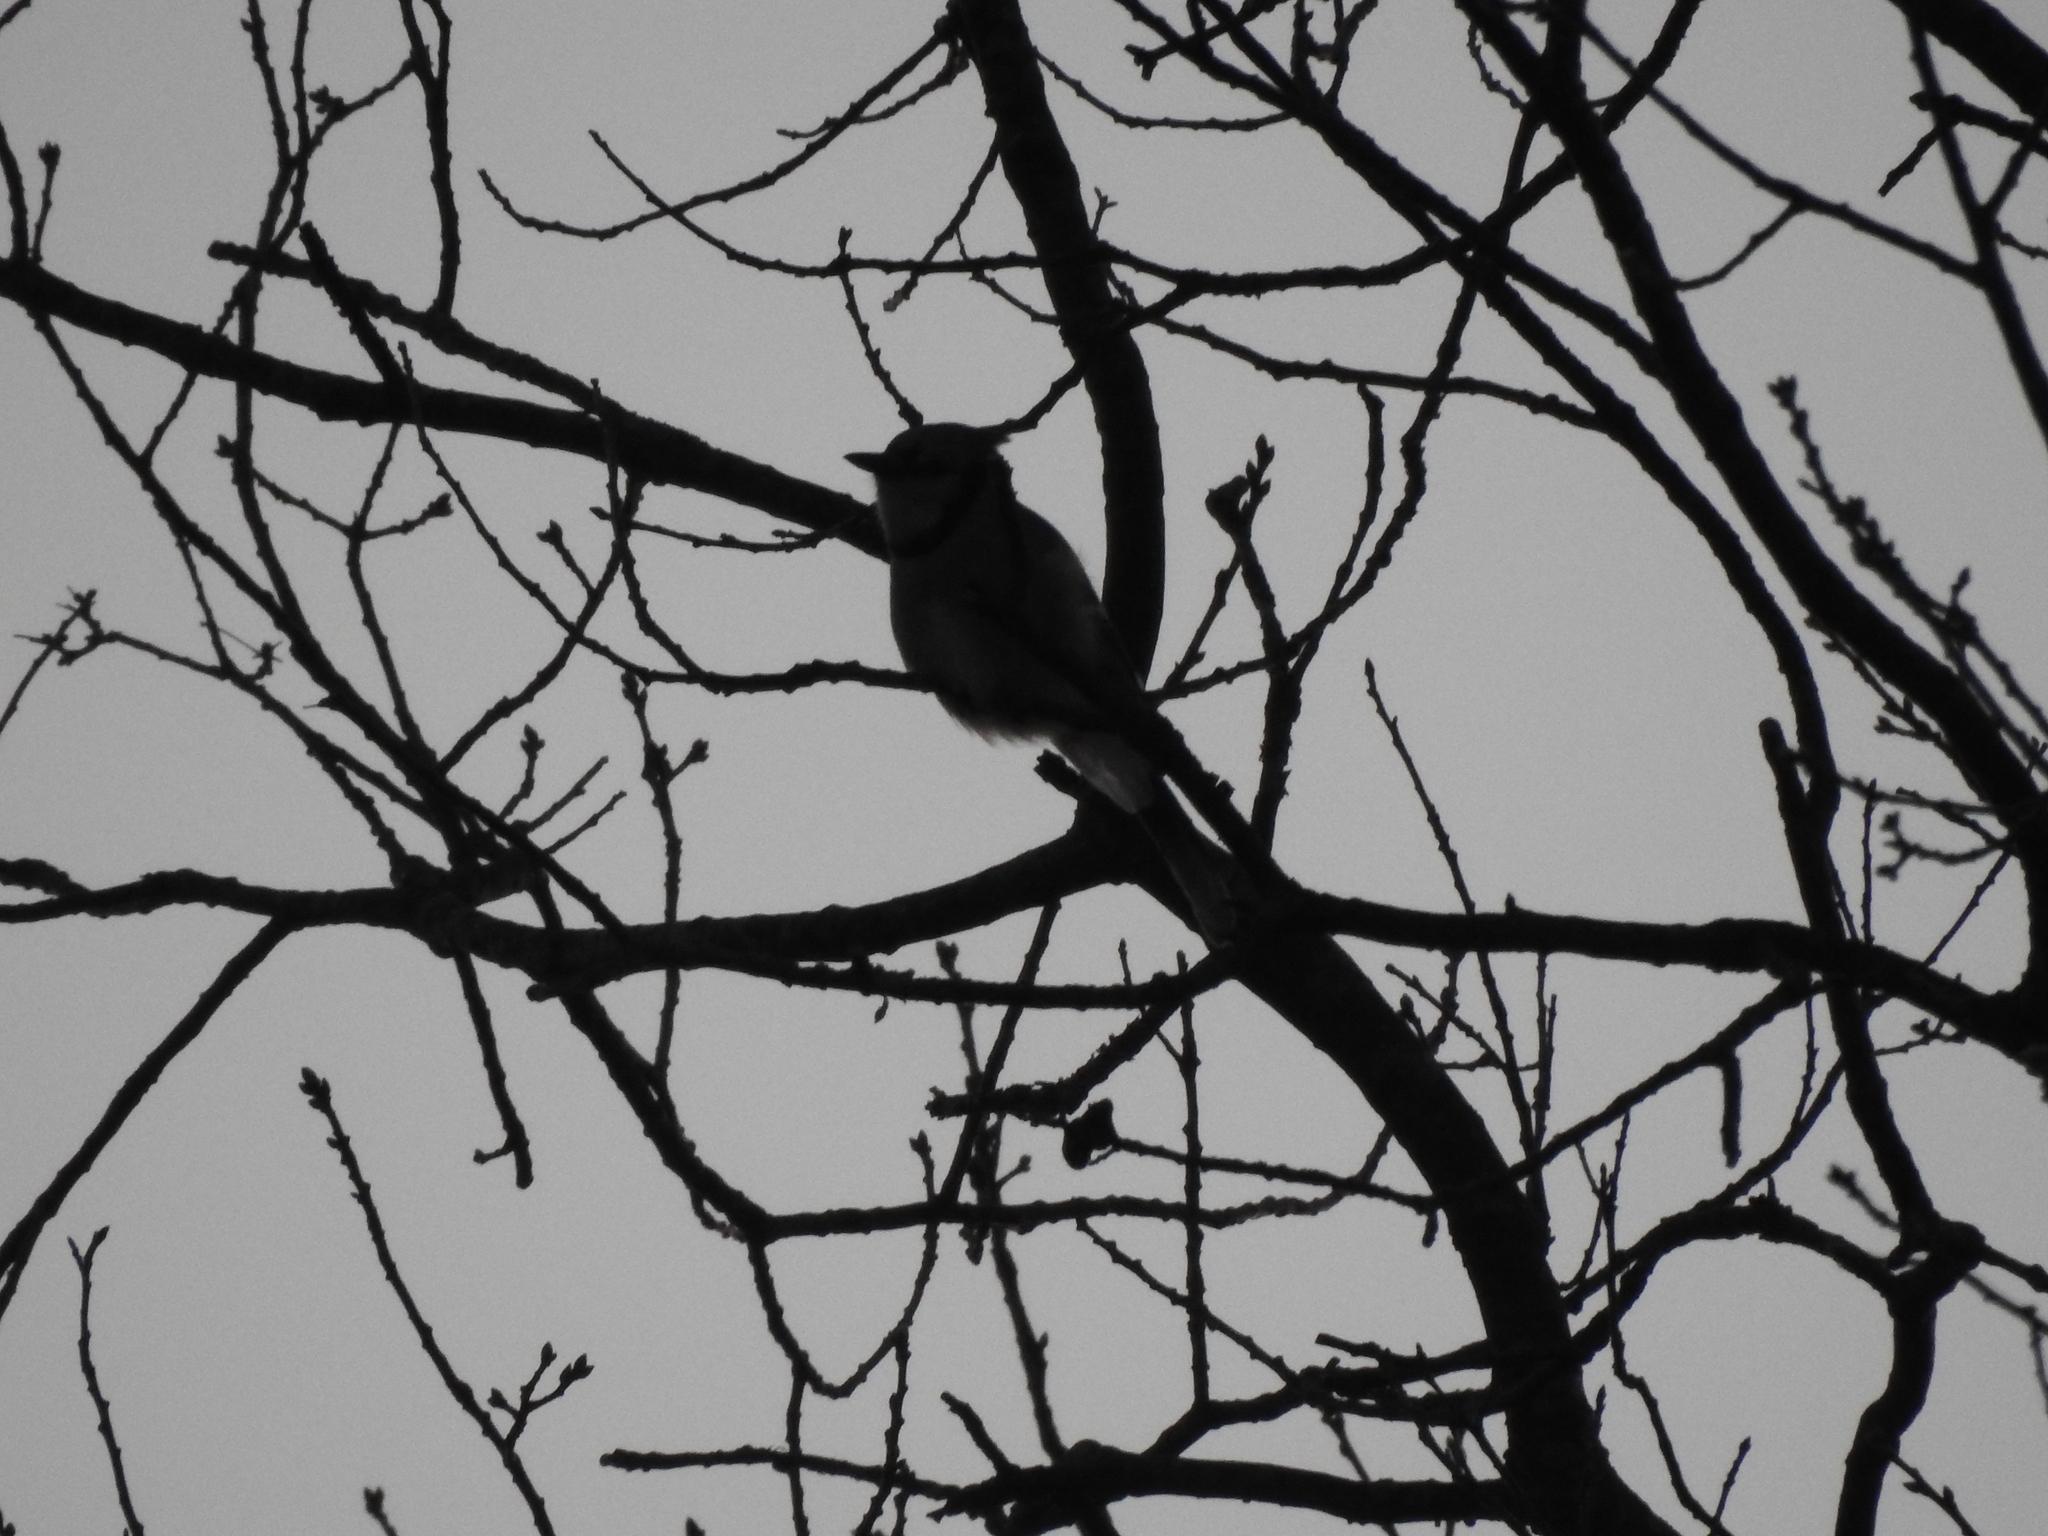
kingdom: Animalia
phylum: Chordata
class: Aves
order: Passeriformes
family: Corvidae
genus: Cyanocitta
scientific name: Cyanocitta cristata
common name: Blue jay
